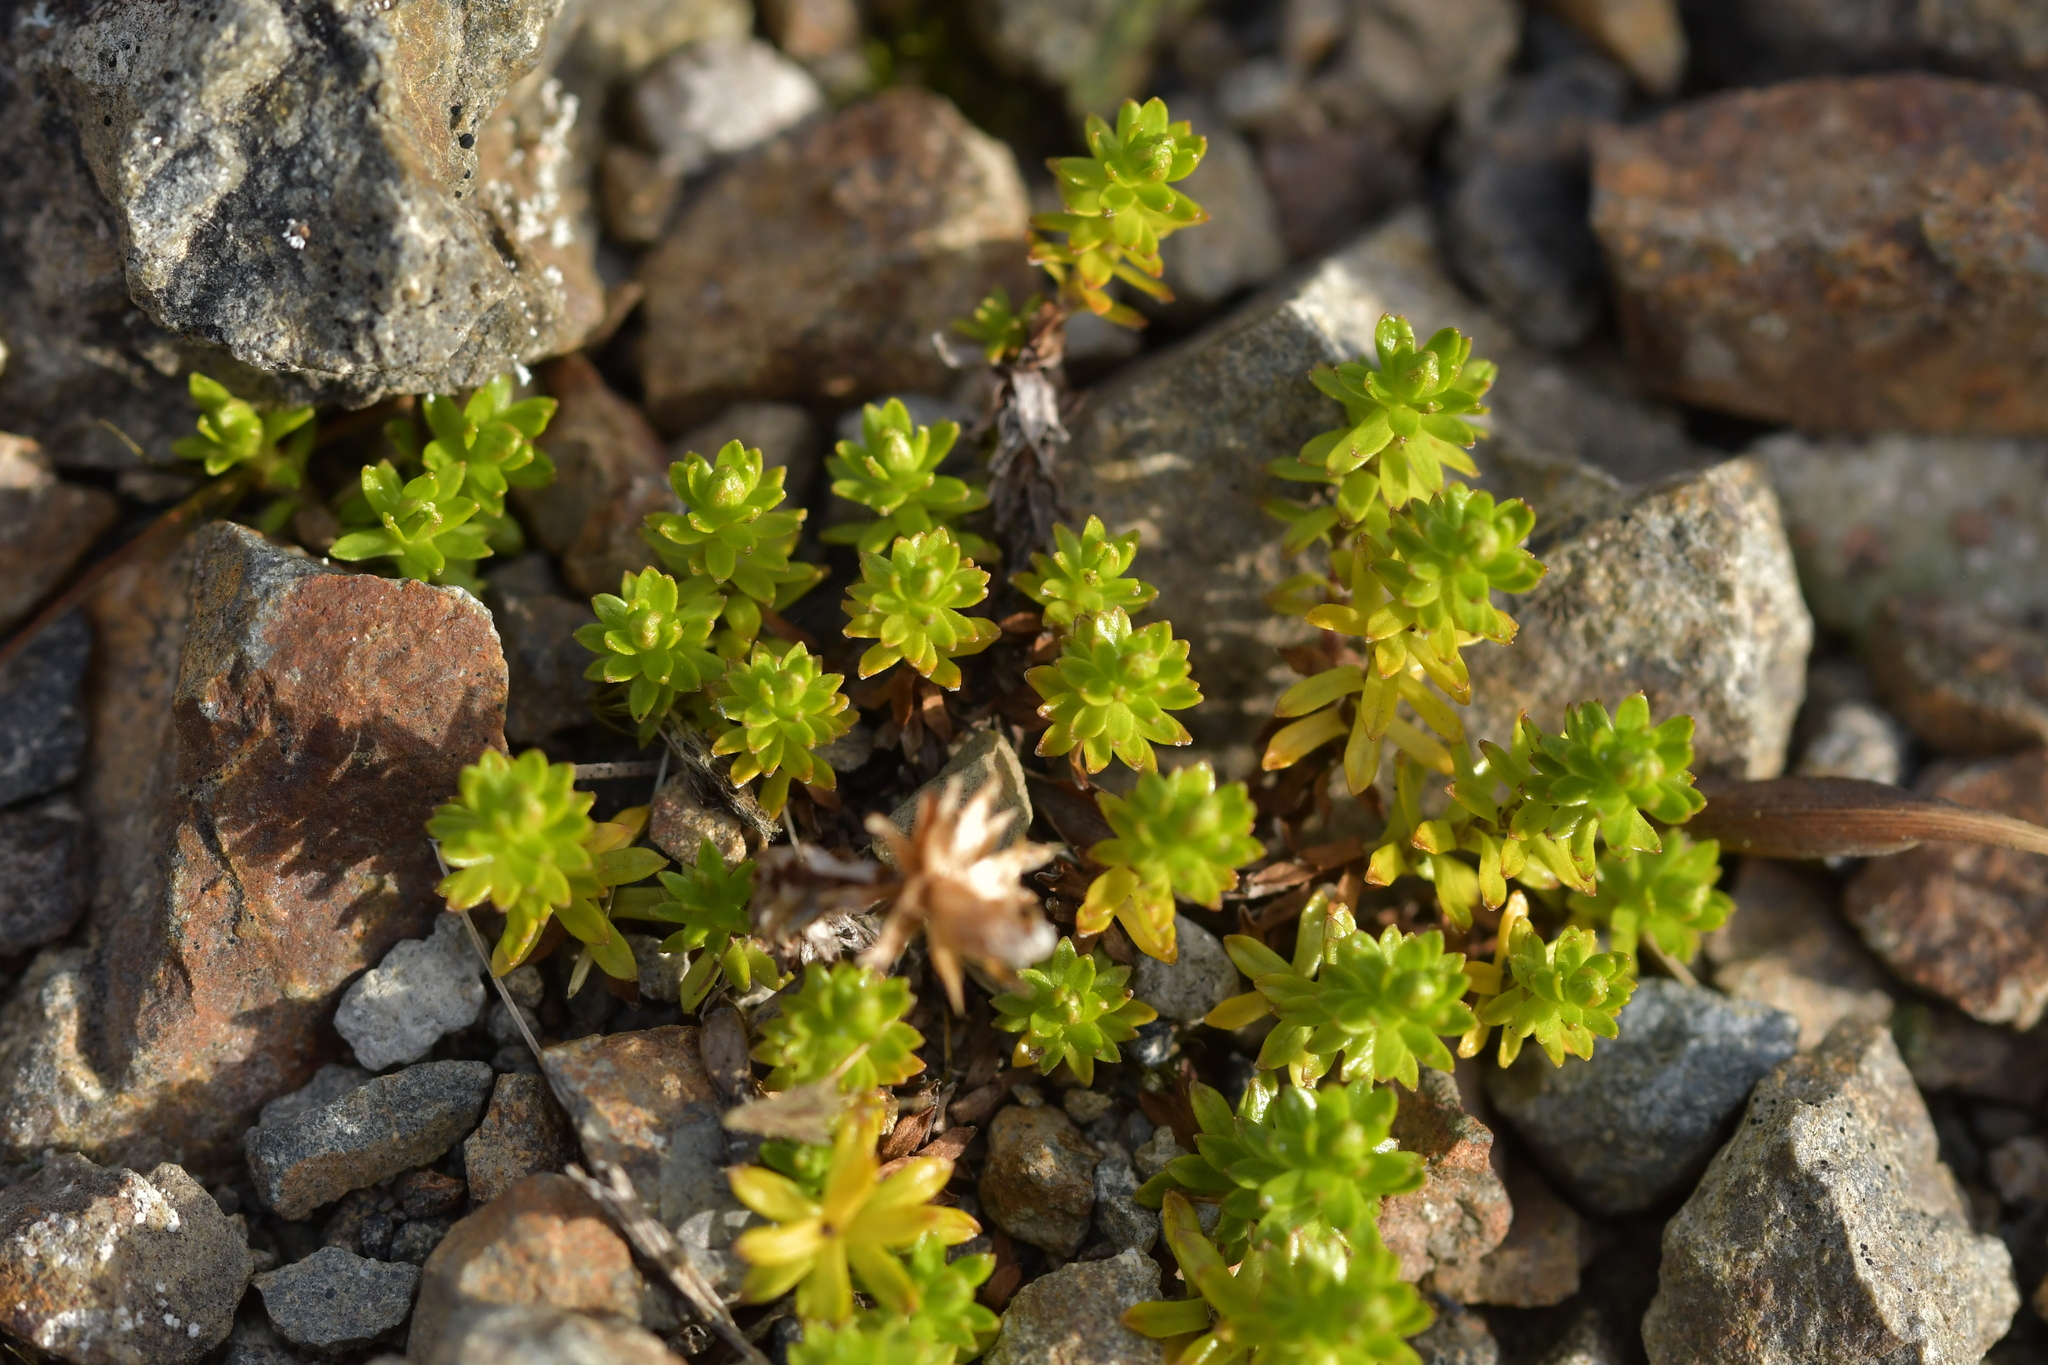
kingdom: Plantae
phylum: Tracheophyta
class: Magnoliopsida
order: Asterales
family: Asteraceae
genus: Raoulia
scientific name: Raoulia glabra
